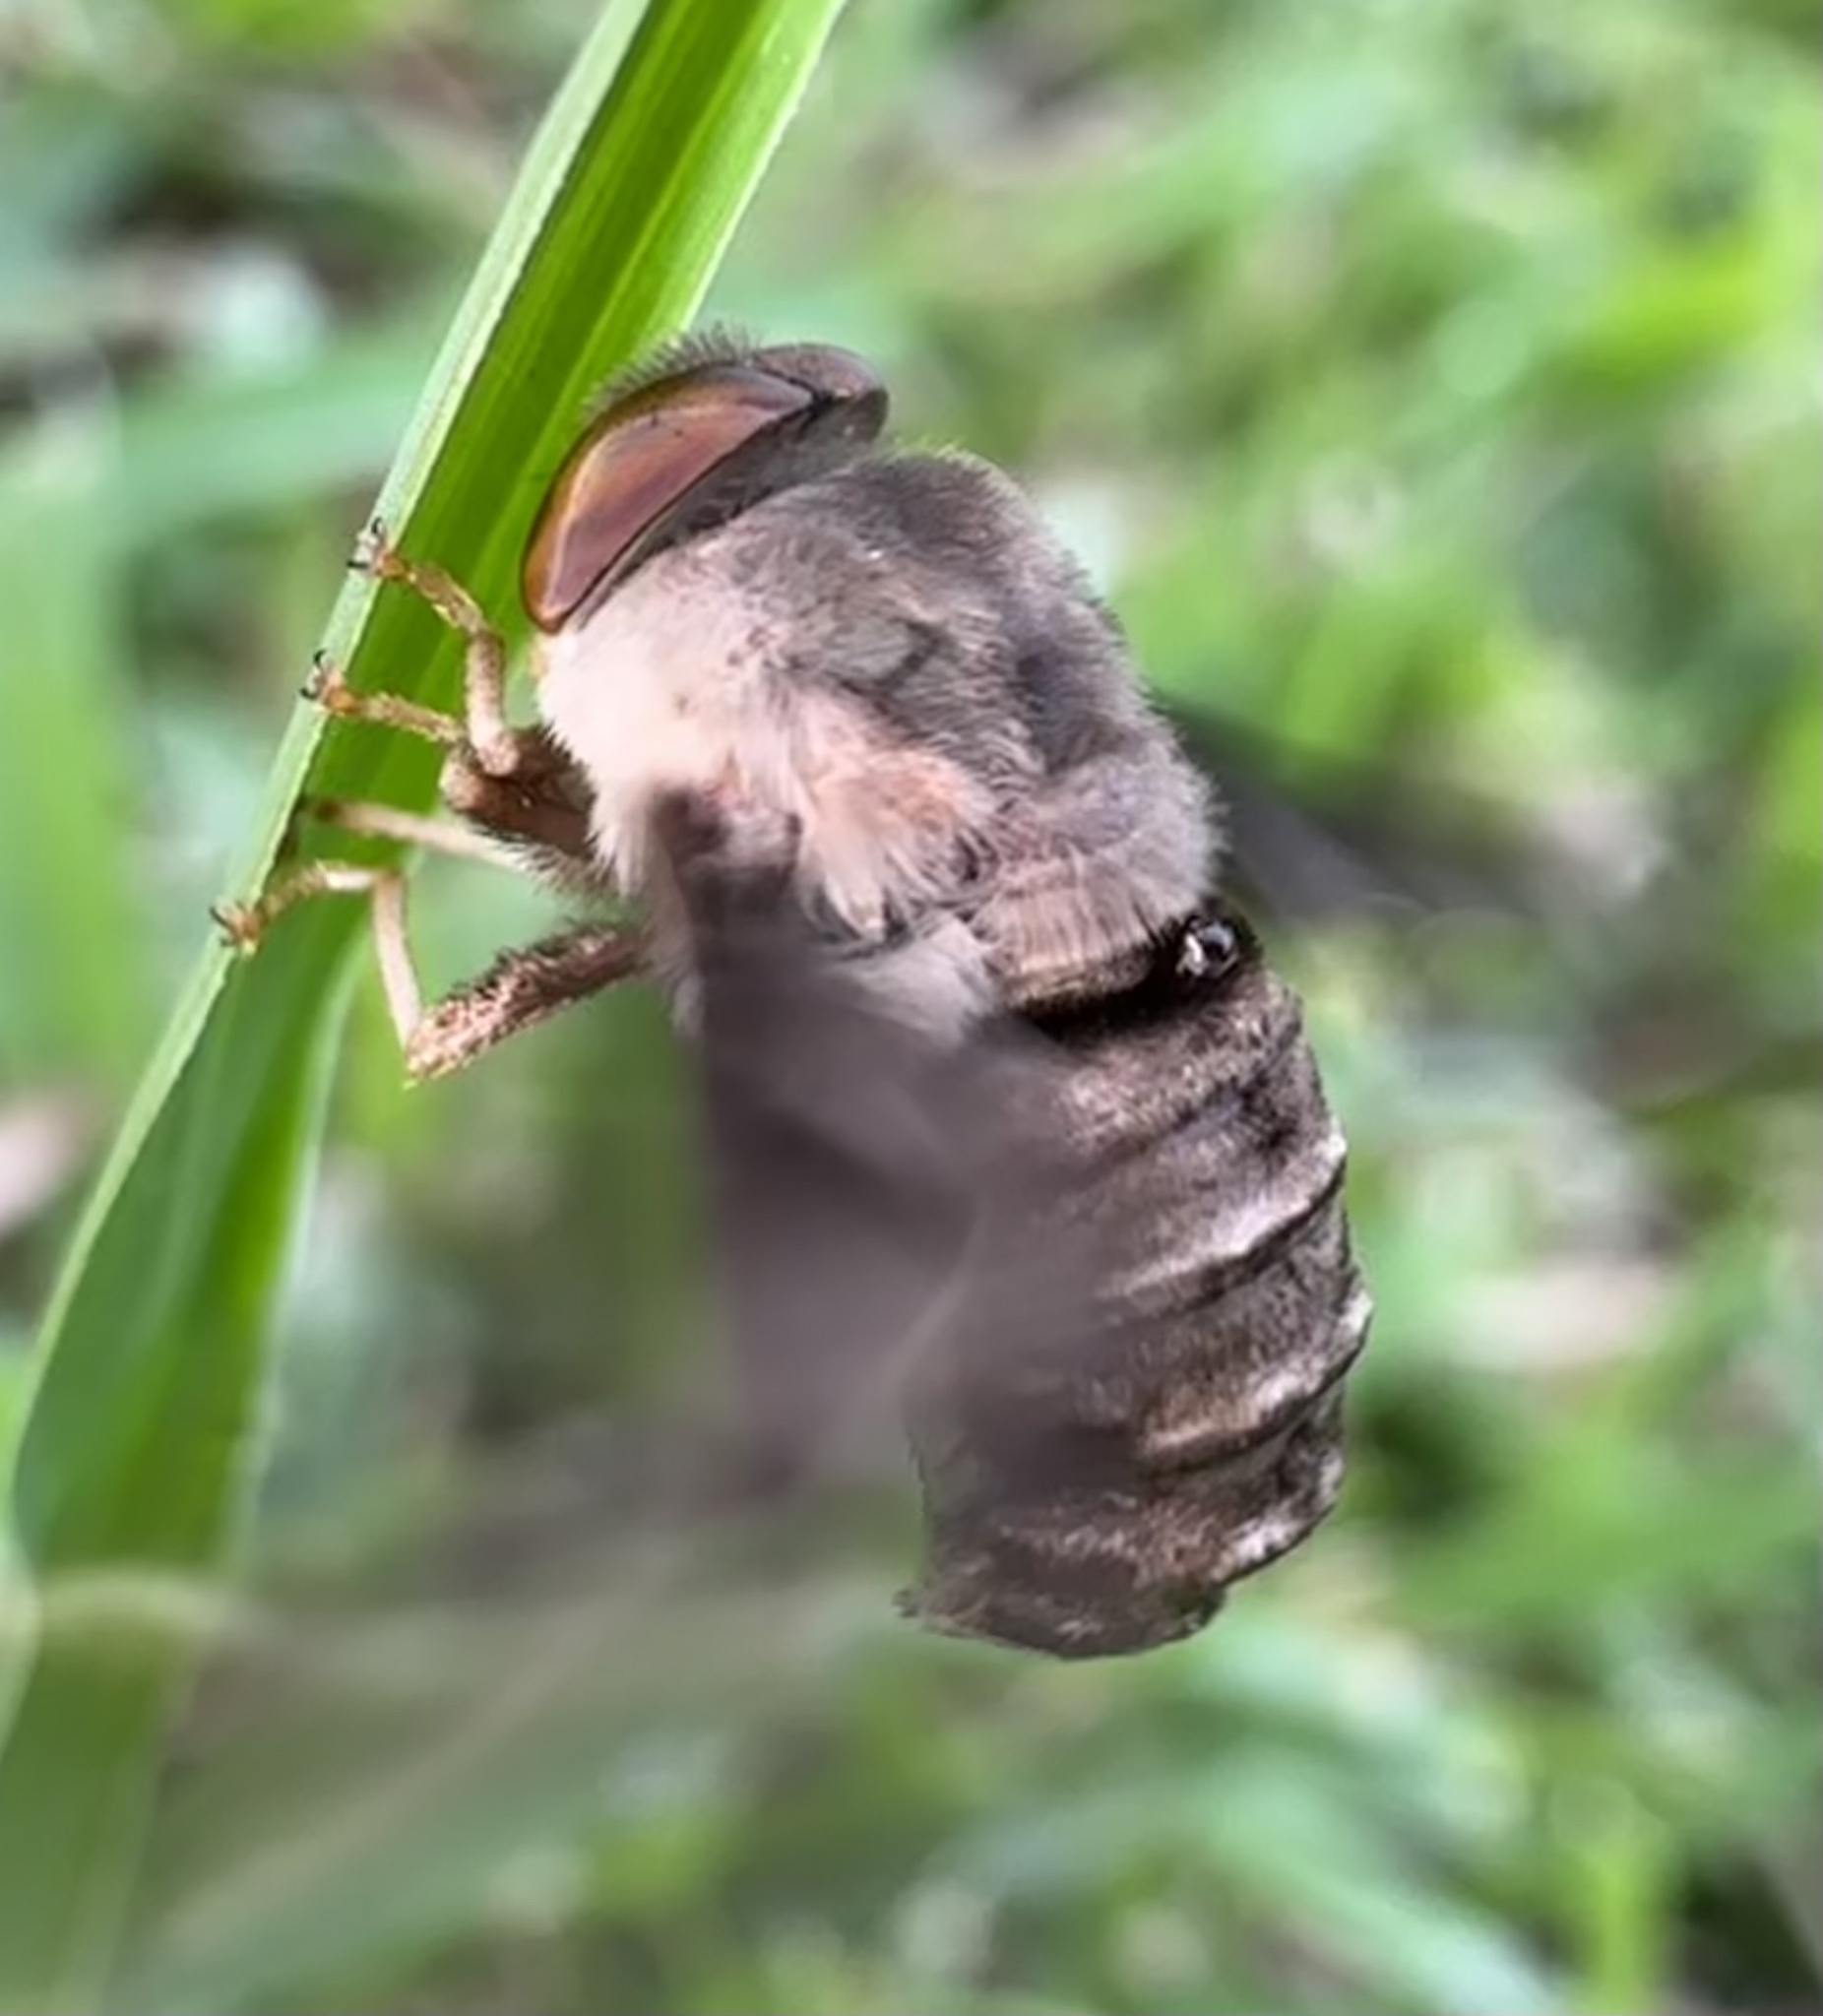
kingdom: Animalia
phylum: Arthropoda
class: Insecta
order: Diptera
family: Nemestrinidae
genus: Atriadops
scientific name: Atriadops vespertilio
